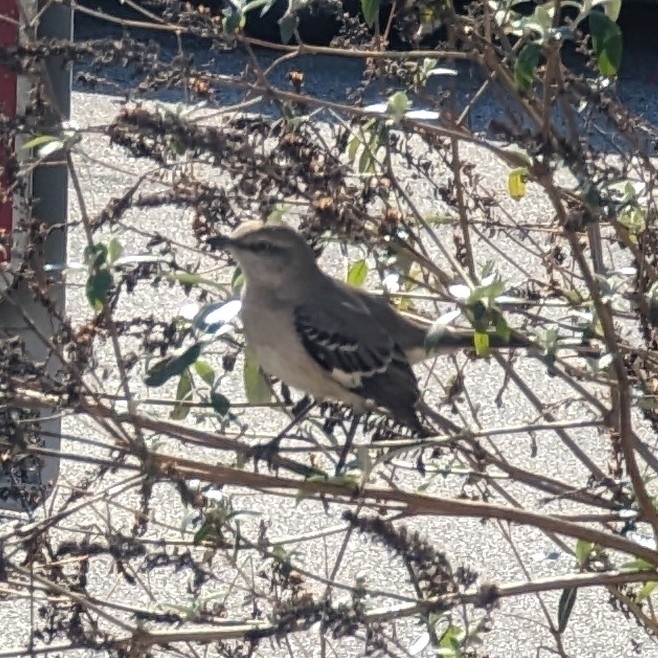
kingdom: Animalia
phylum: Chordata
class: Aves
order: Passeriformes
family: Mimidae
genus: Mimus
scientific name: Mimus polyglottos
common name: Northern mockingbird
